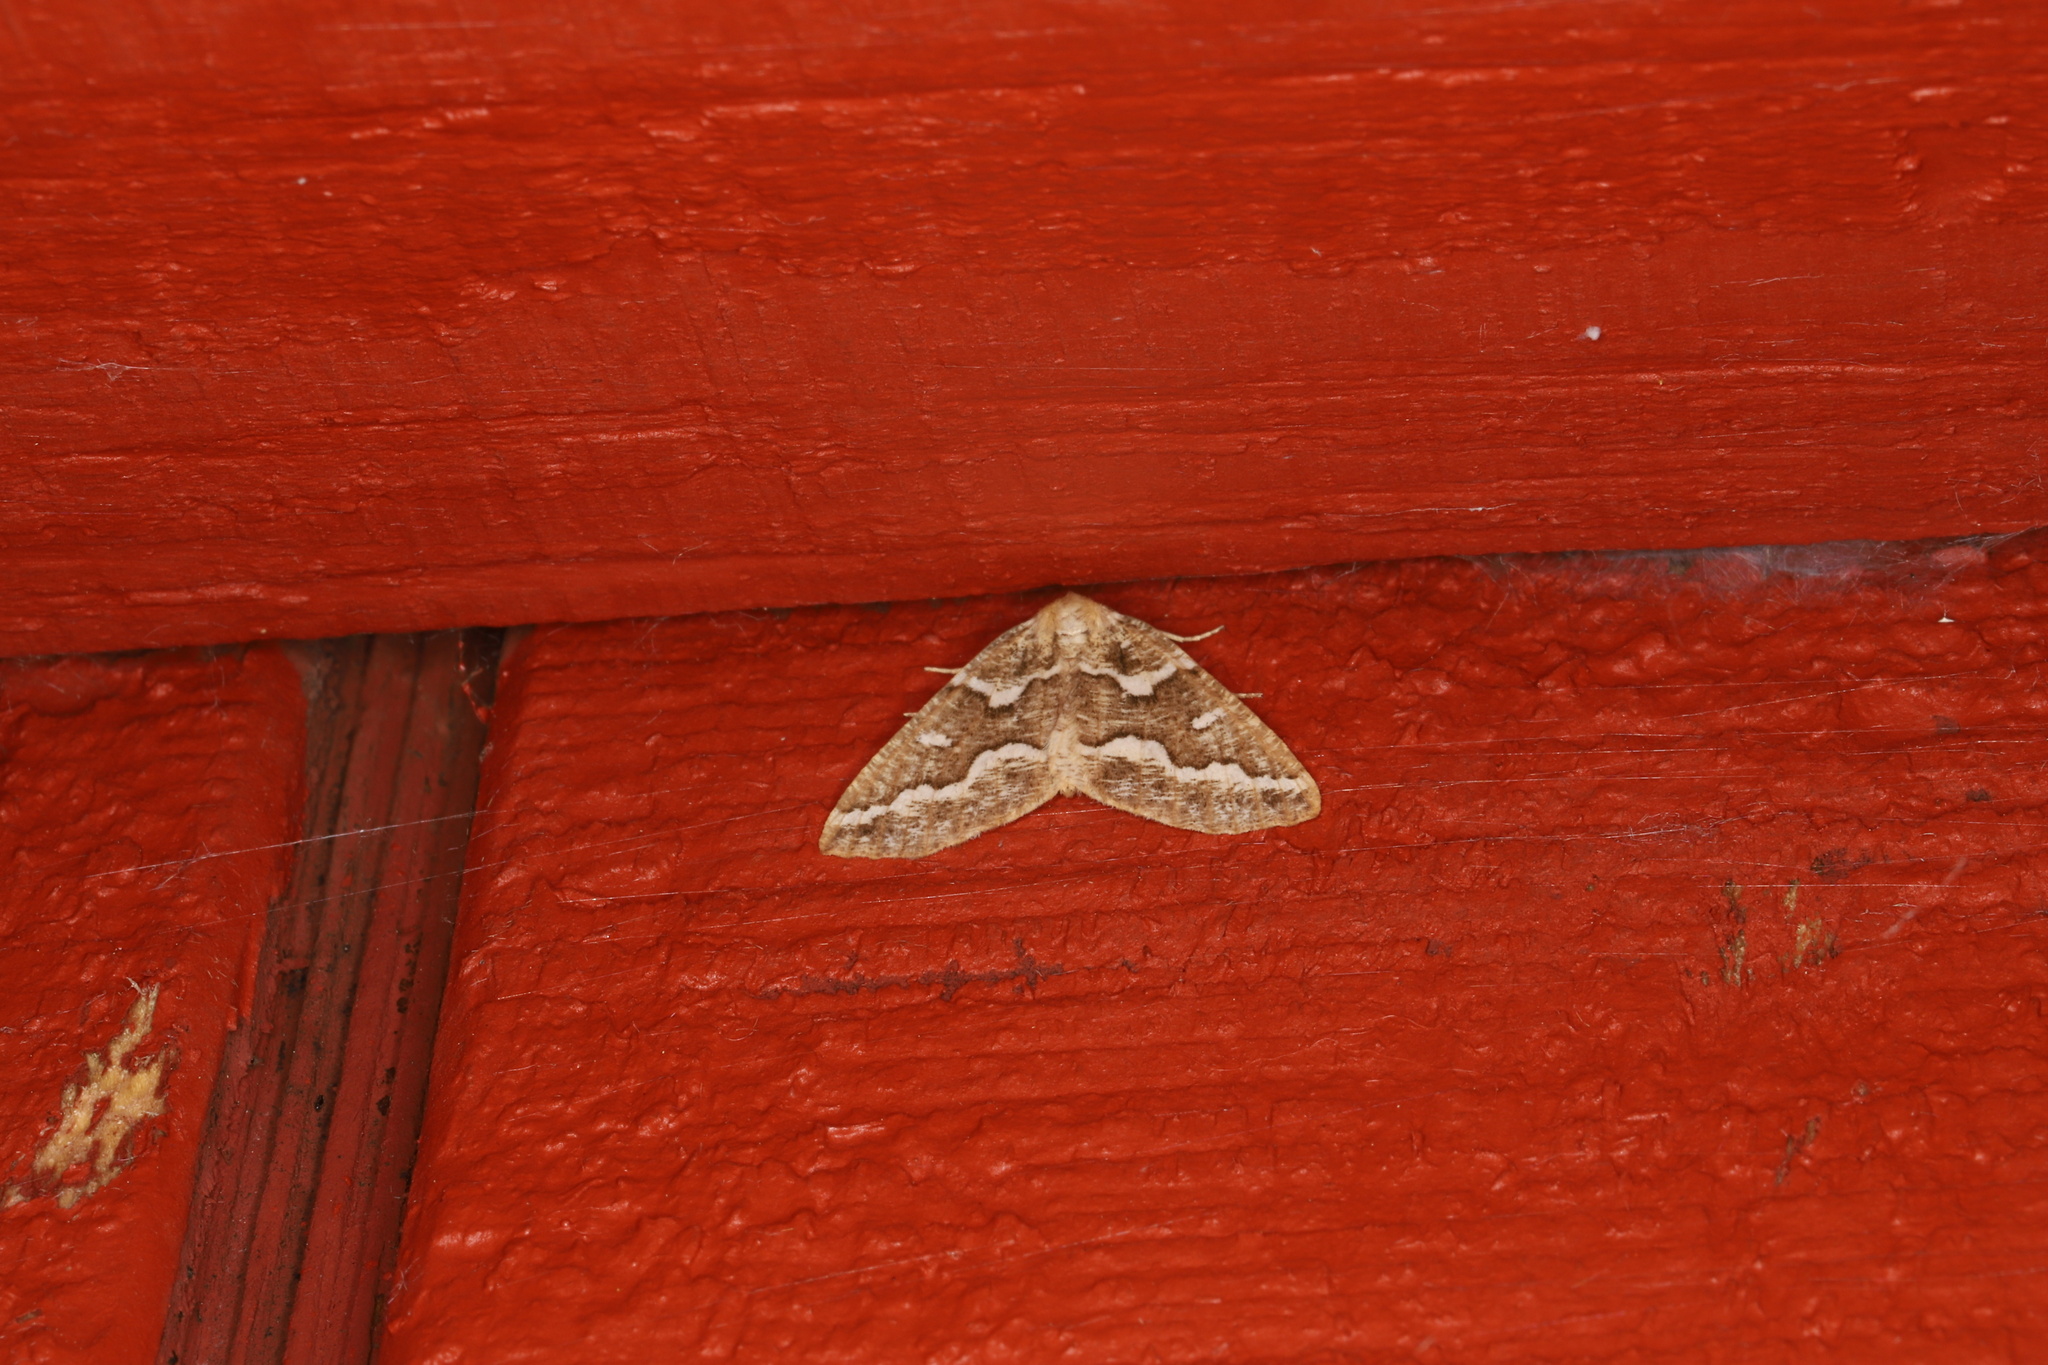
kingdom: Animalia
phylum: Arthropoda
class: Insecta
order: Lepidoptera
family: Geometridae
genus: Caripeta
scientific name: Caripeta divisata
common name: Gray spruce looper
